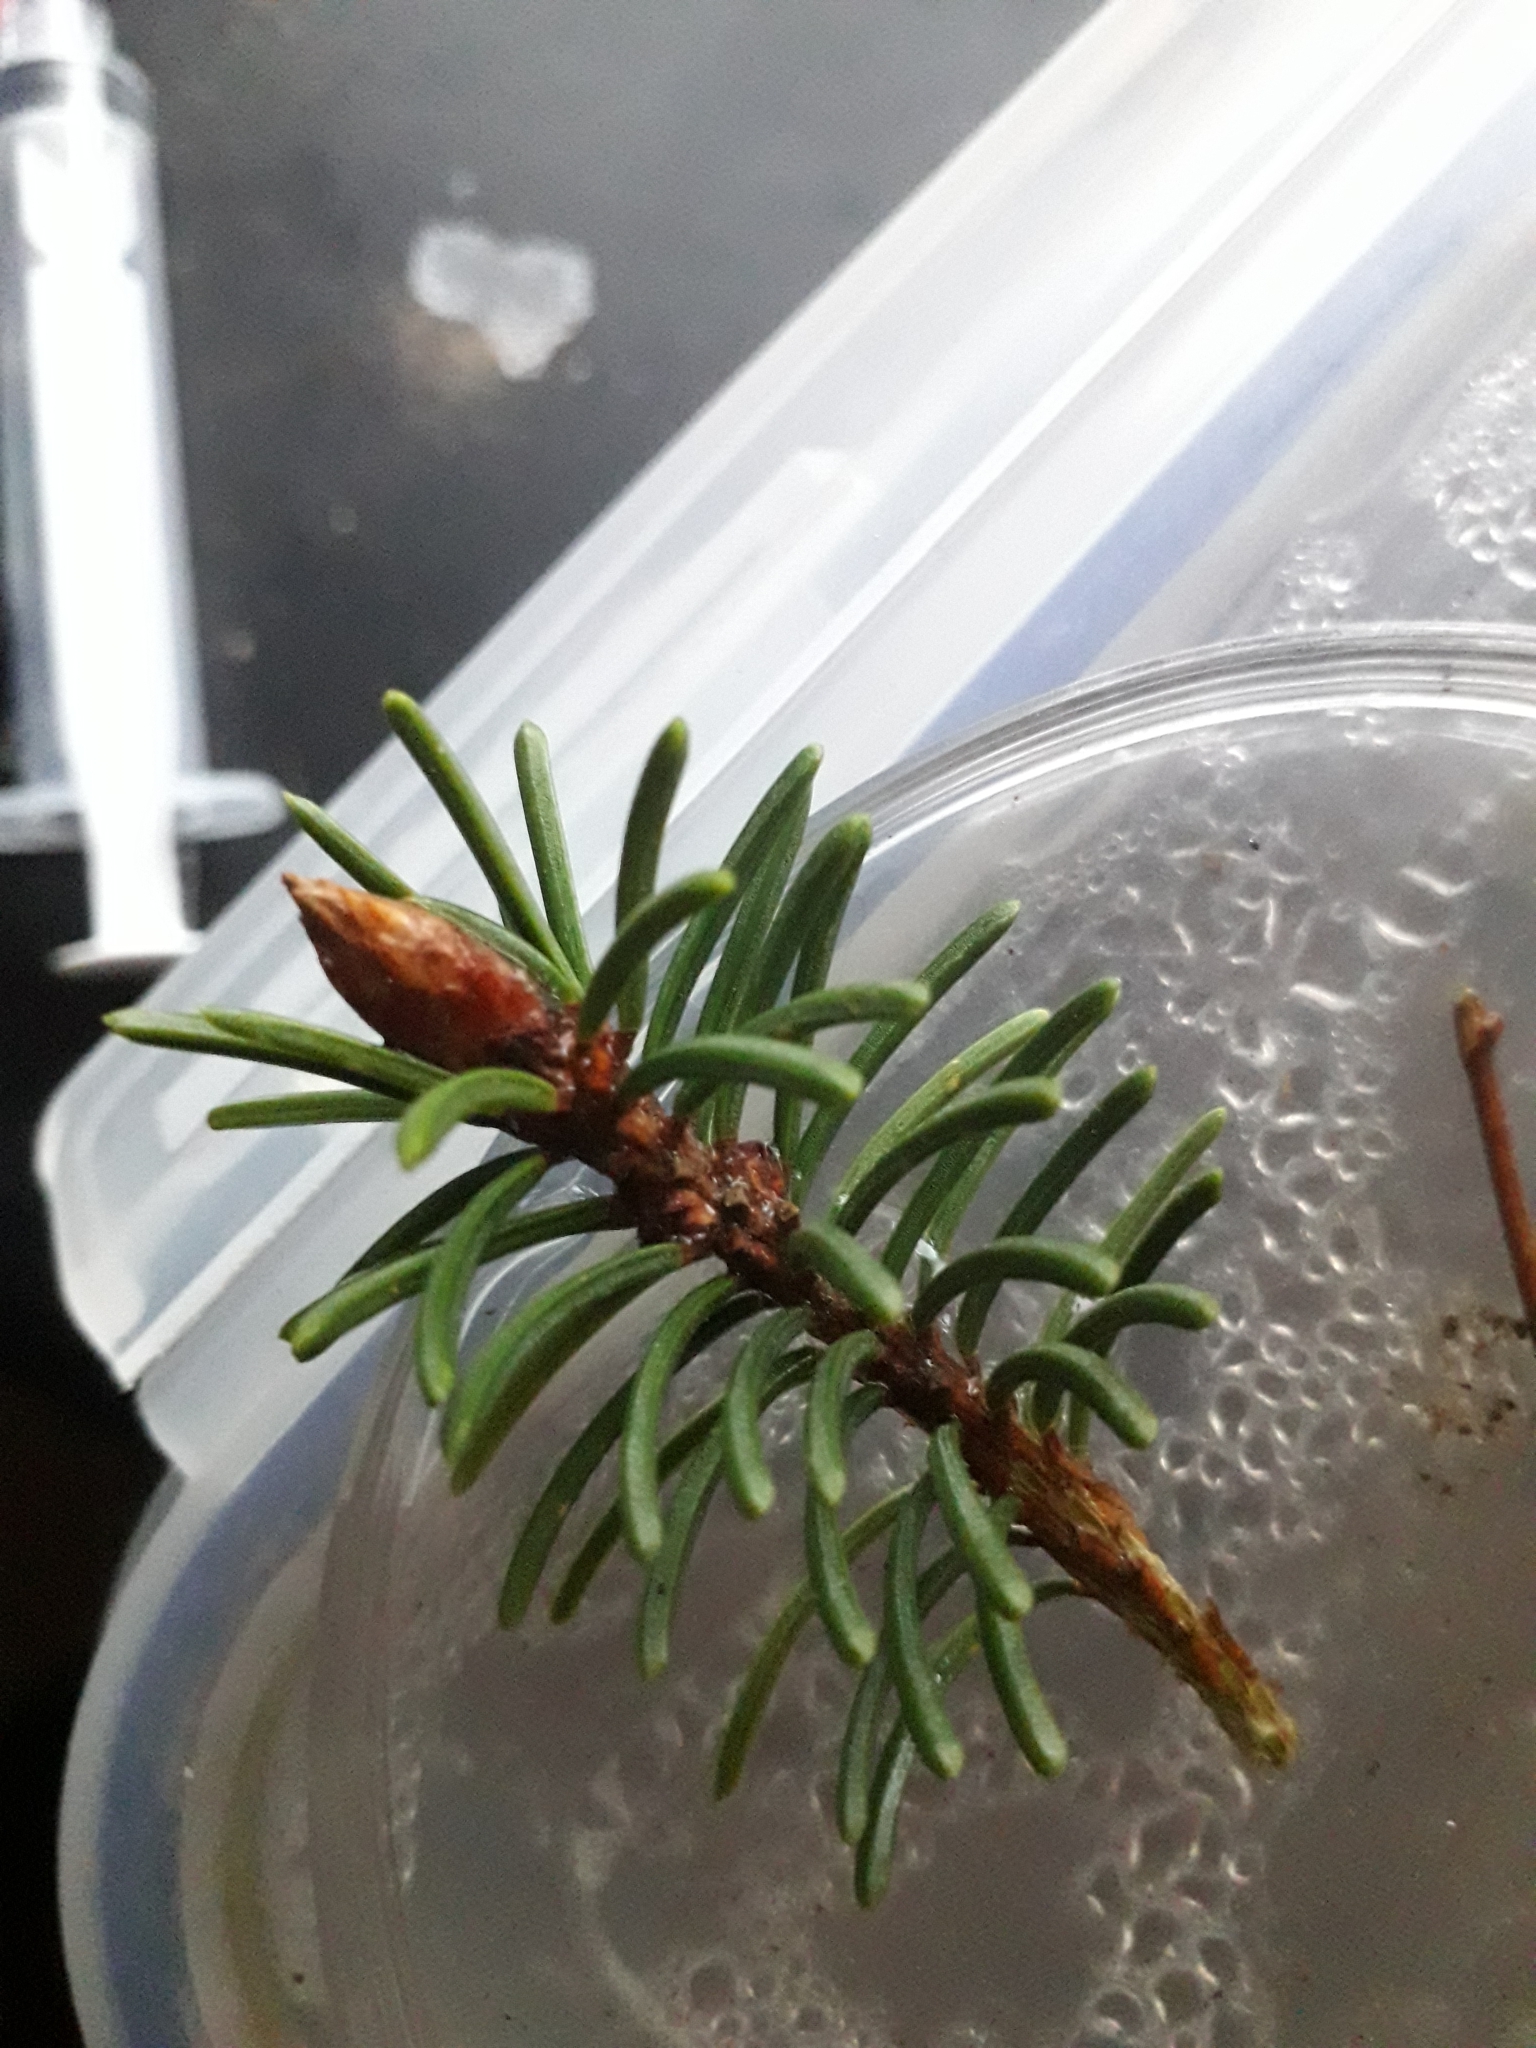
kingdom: Plantae
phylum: Tracheophyta
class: Pinopsida
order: Pinales
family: Pinaceae
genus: Pseudotsuga
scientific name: Pseudotsuga menziesii
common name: Douglas fir
